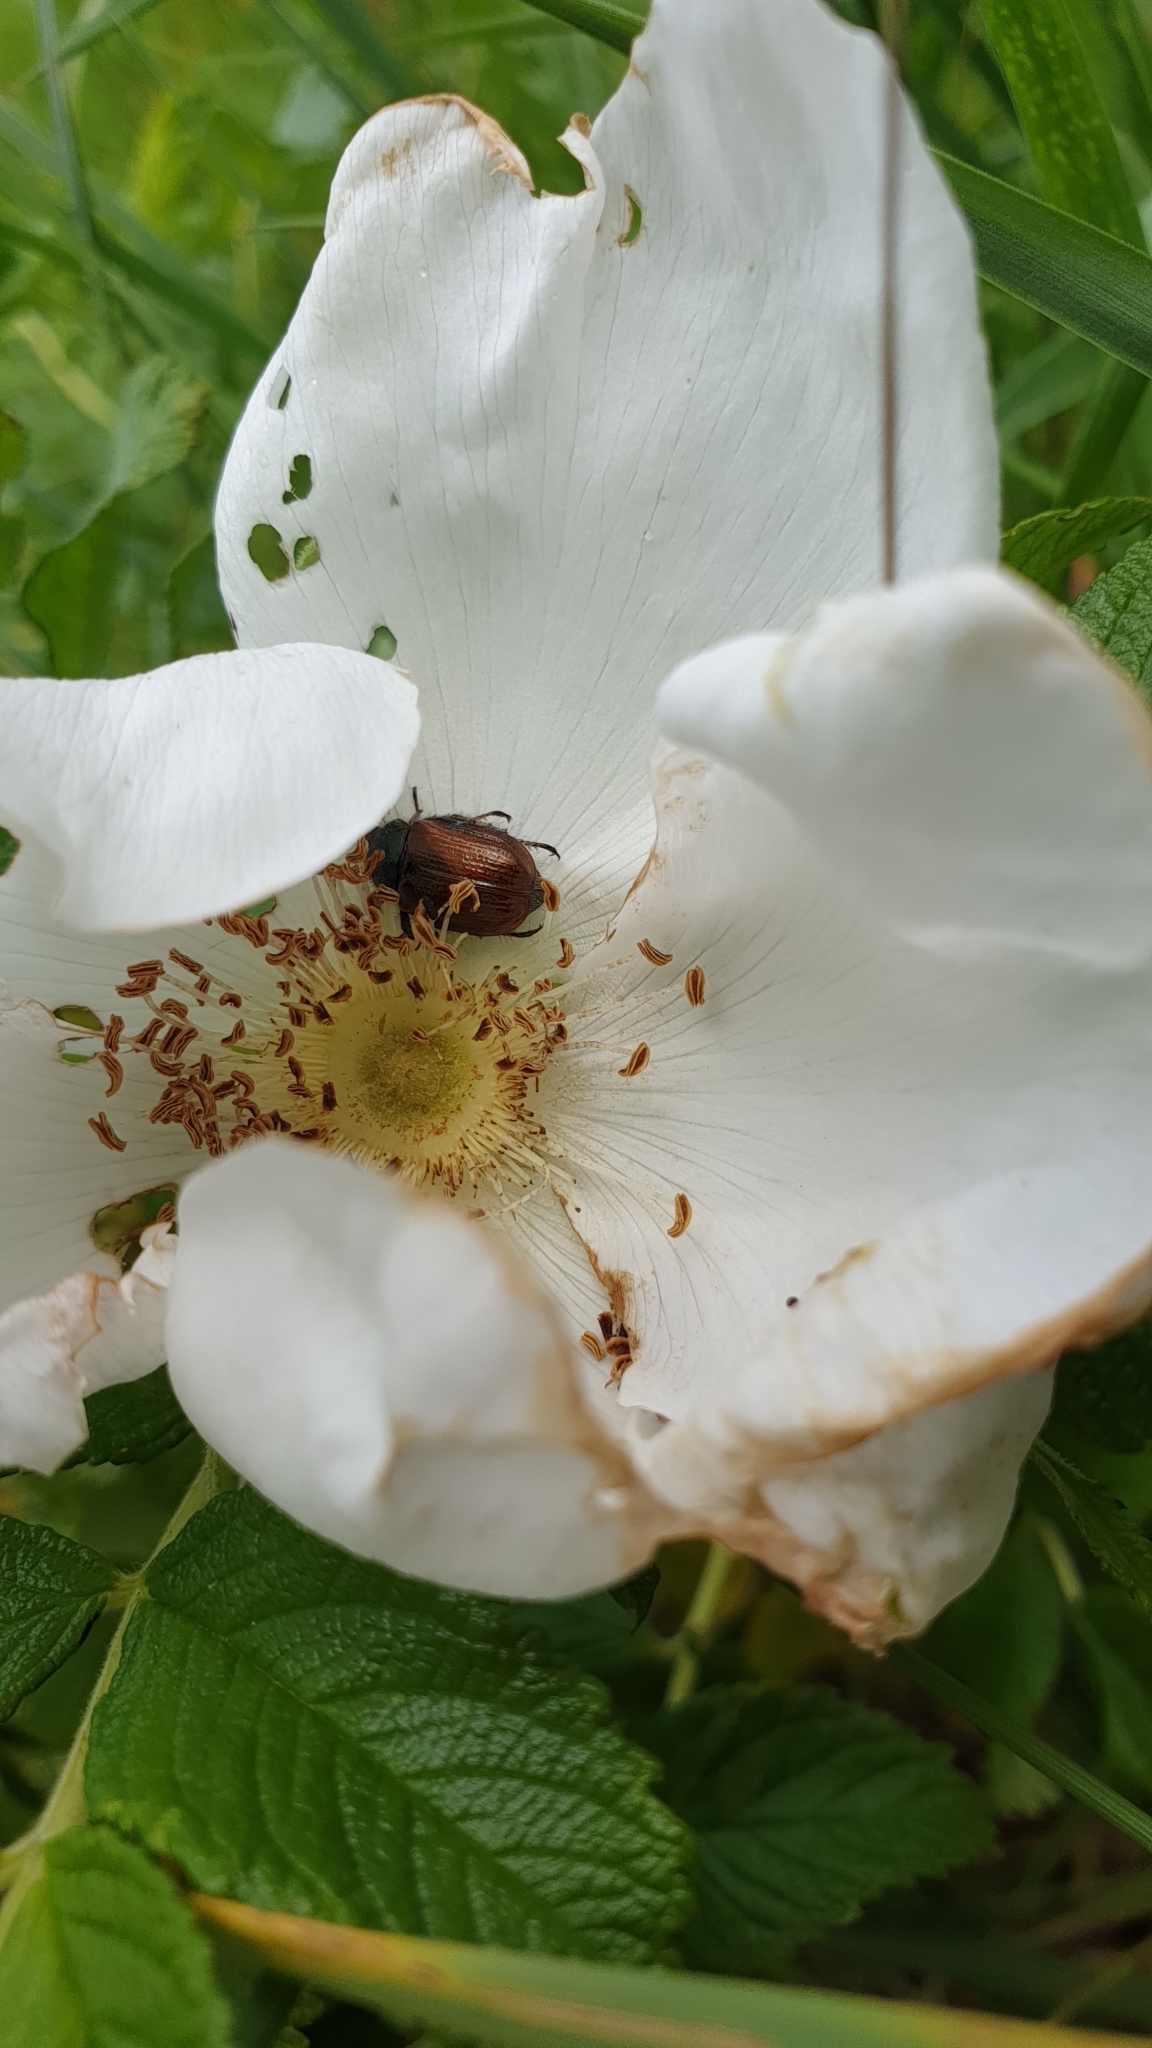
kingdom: Animalia
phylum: Arthropoda
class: Insecta
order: Coleoptera
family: Scarabaeidae
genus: Phyllopertha
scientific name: Phyllopertha horticola
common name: Garden chafer
